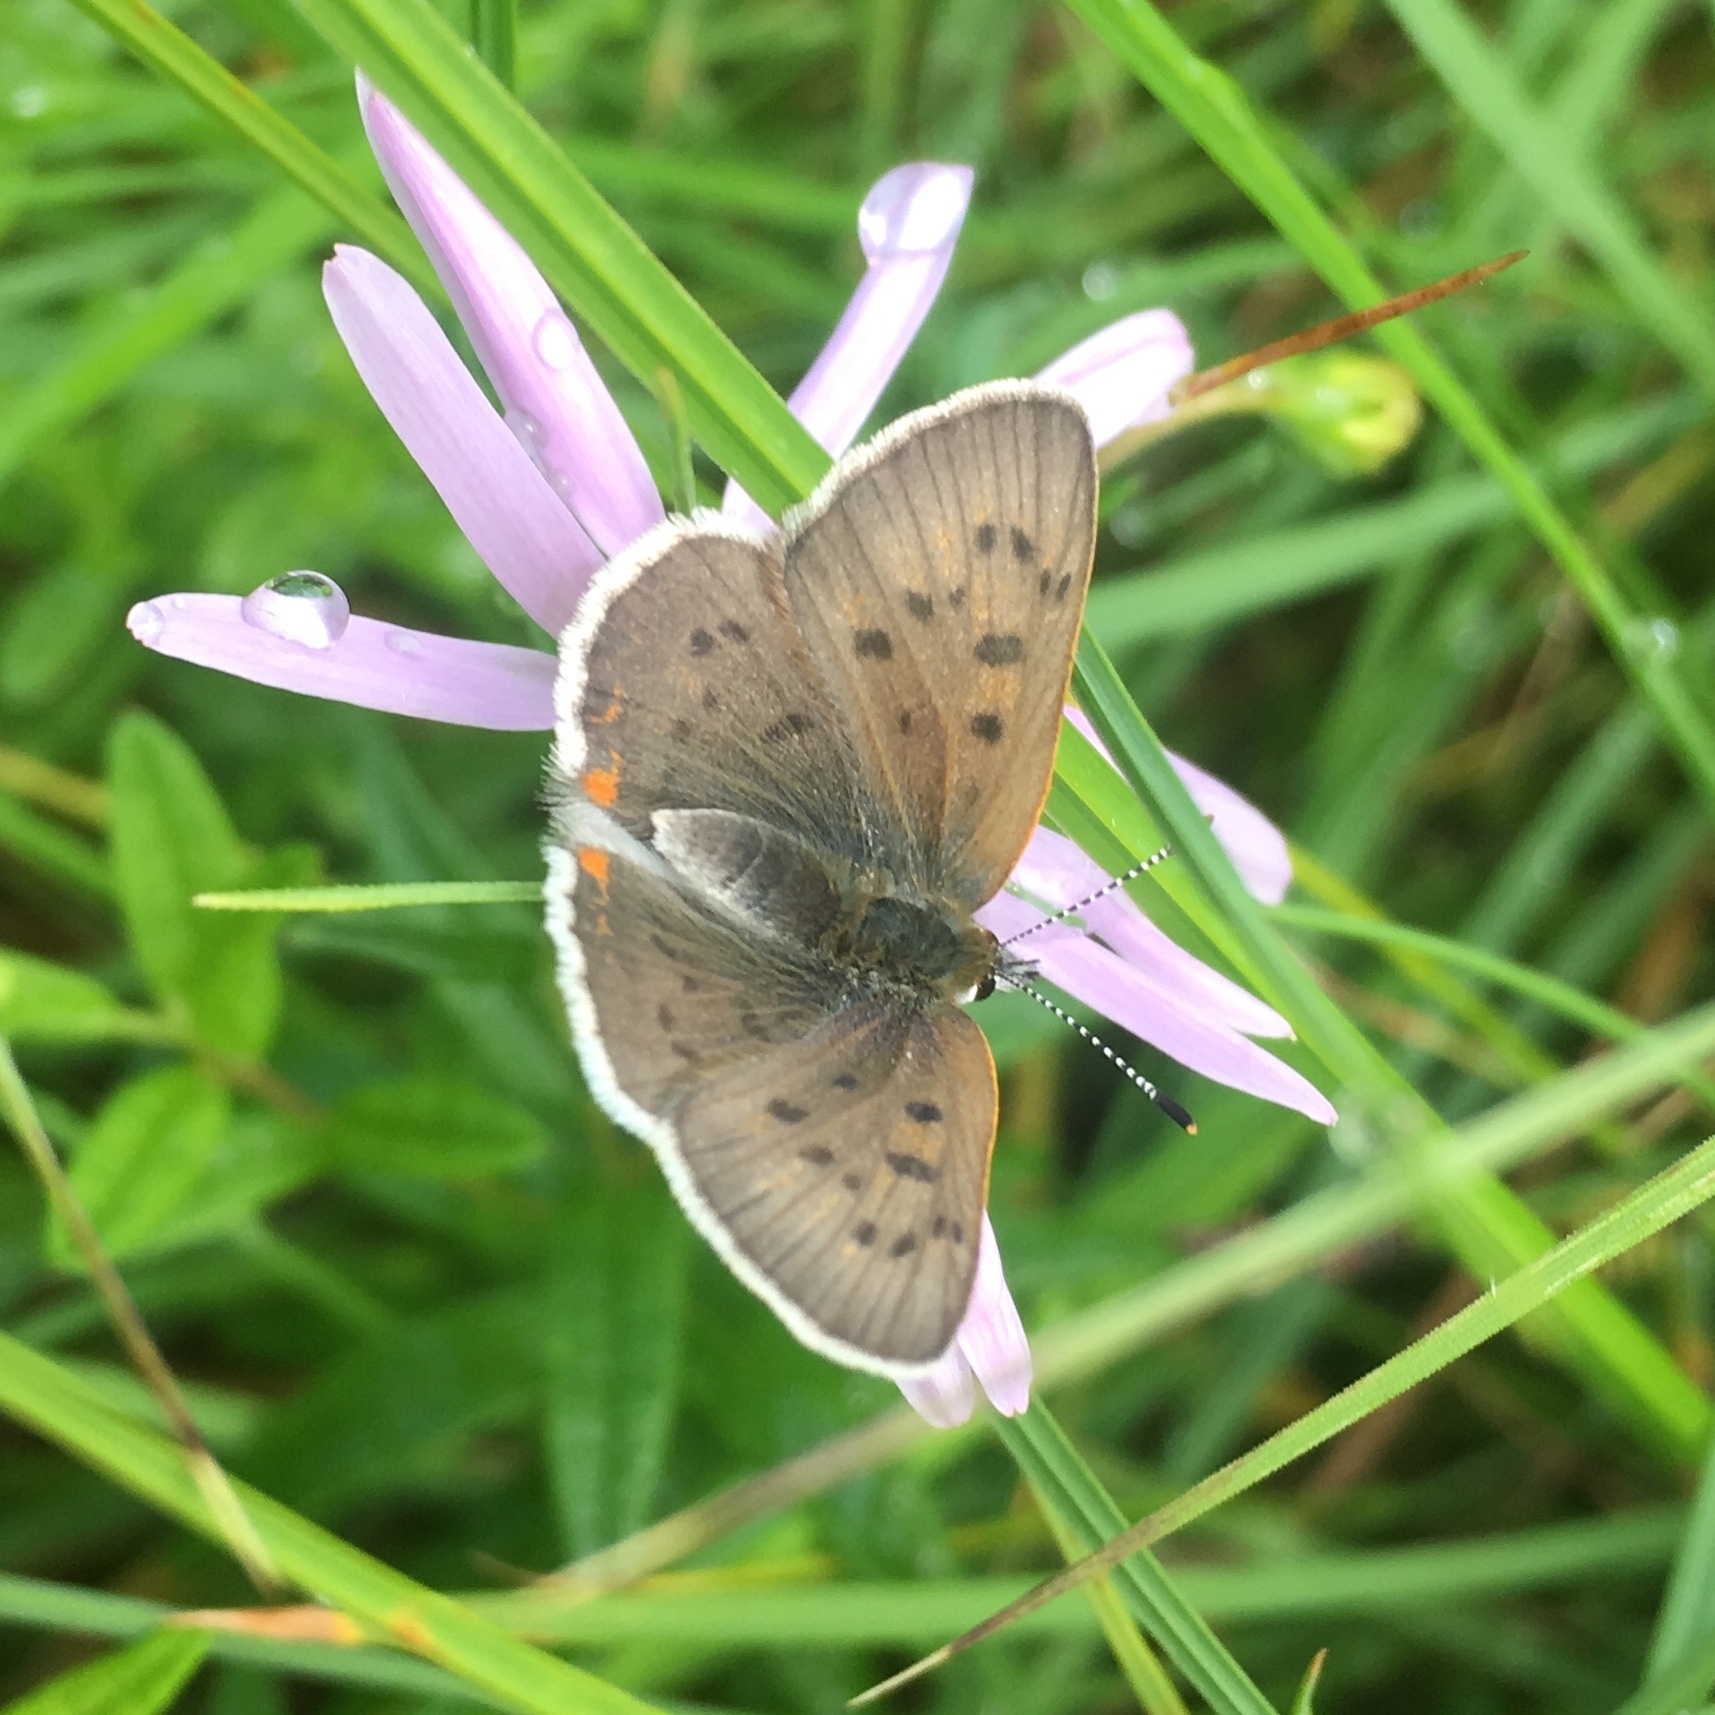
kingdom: Animalia
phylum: Arthropoda
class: Insecta
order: Lepidoptera
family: Lycaenidae
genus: Tharsalea
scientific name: Tharsalea epixanthe
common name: Bog copper
